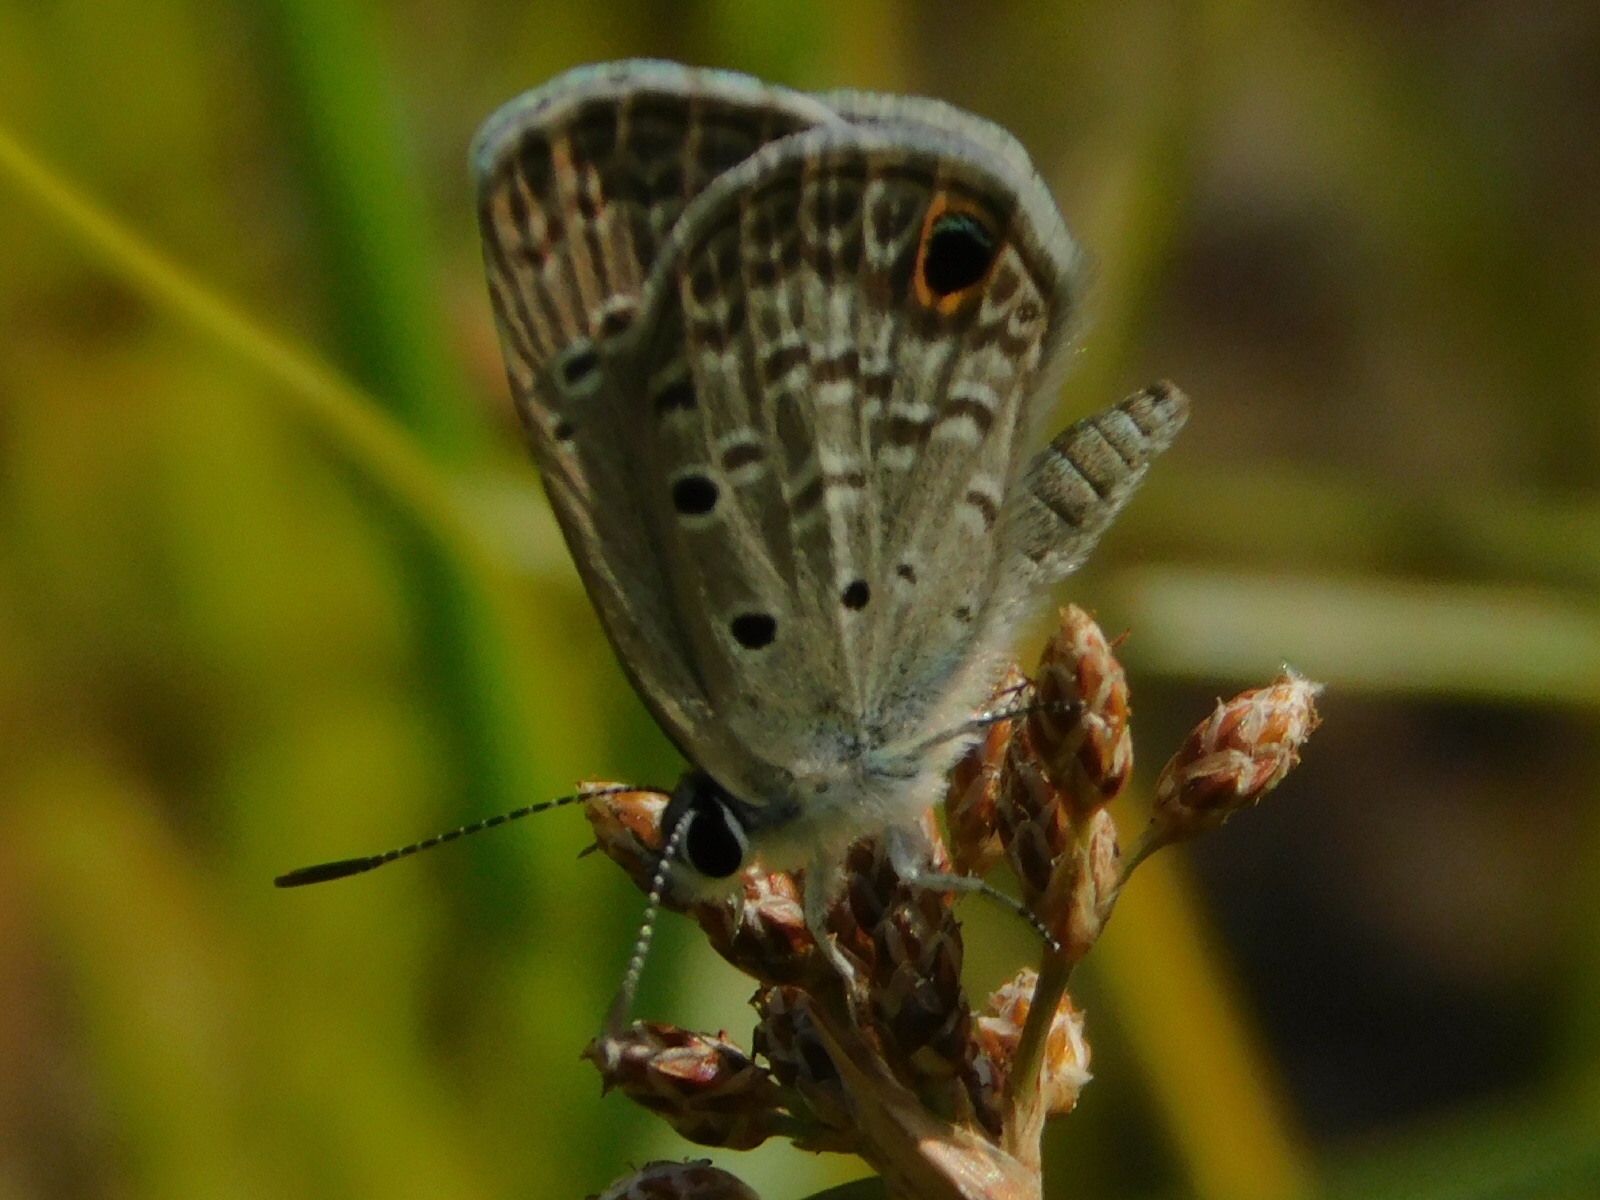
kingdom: Animalia
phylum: Arthropoda
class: Insecta
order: Lepidoptera
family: Lycaenidae
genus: Hemiargus
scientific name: Hemiargus ceraunus
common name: Ceraunus blue
